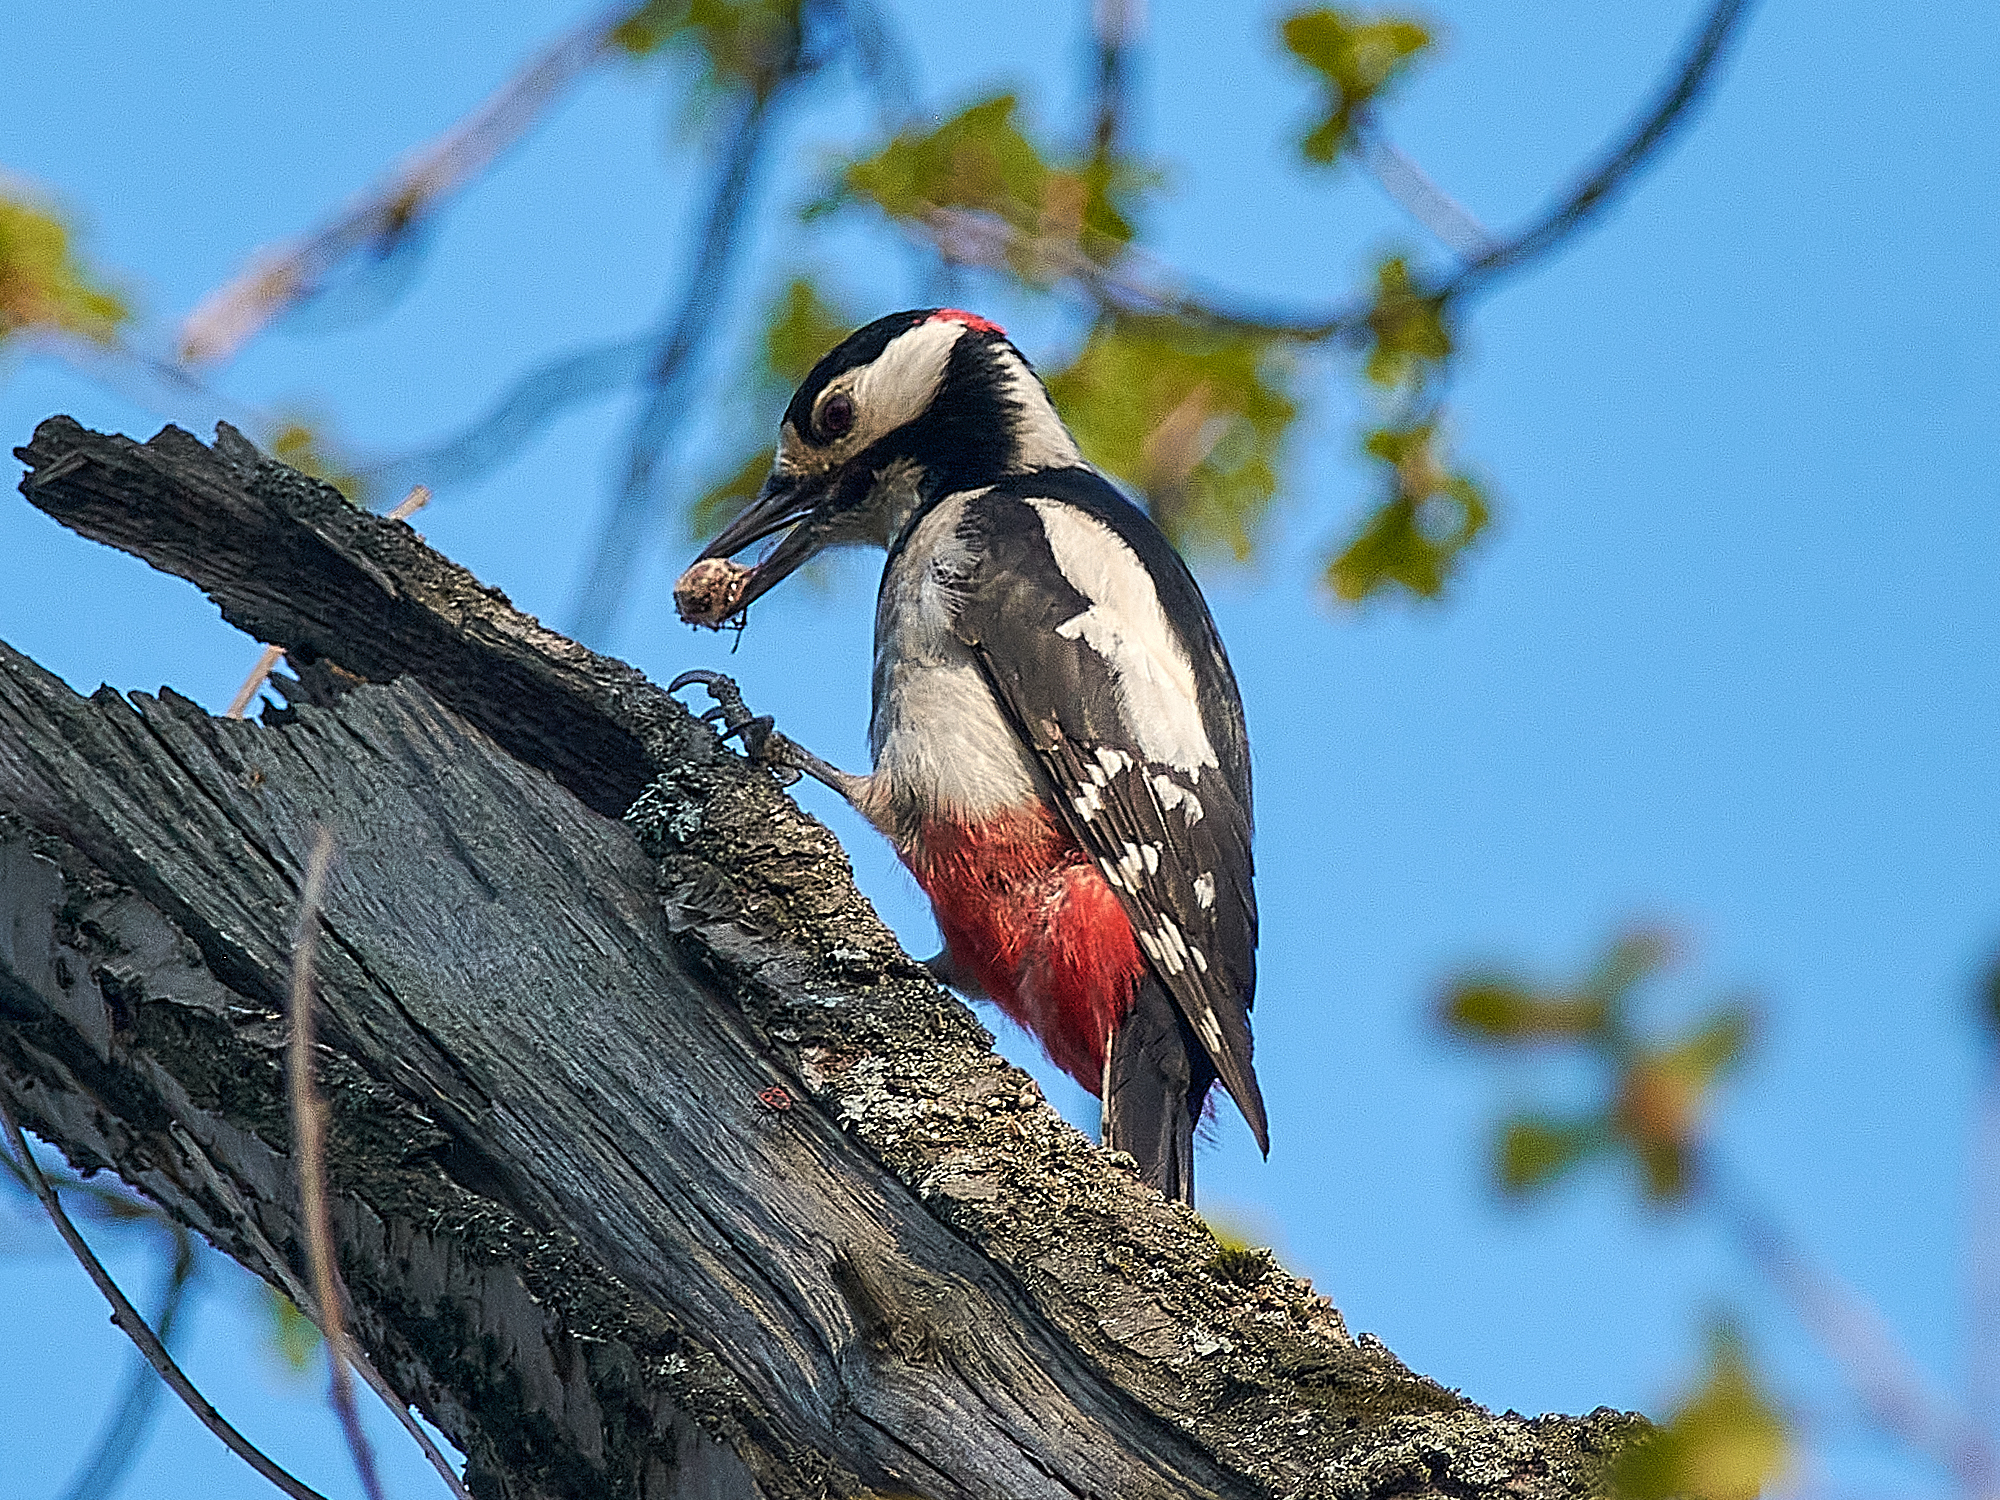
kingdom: Animalia
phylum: Chordata
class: Aves
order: Piciformes
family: Picidae
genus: Dendrocopos
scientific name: Dendrocopos major
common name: Great spotted woodpecker
